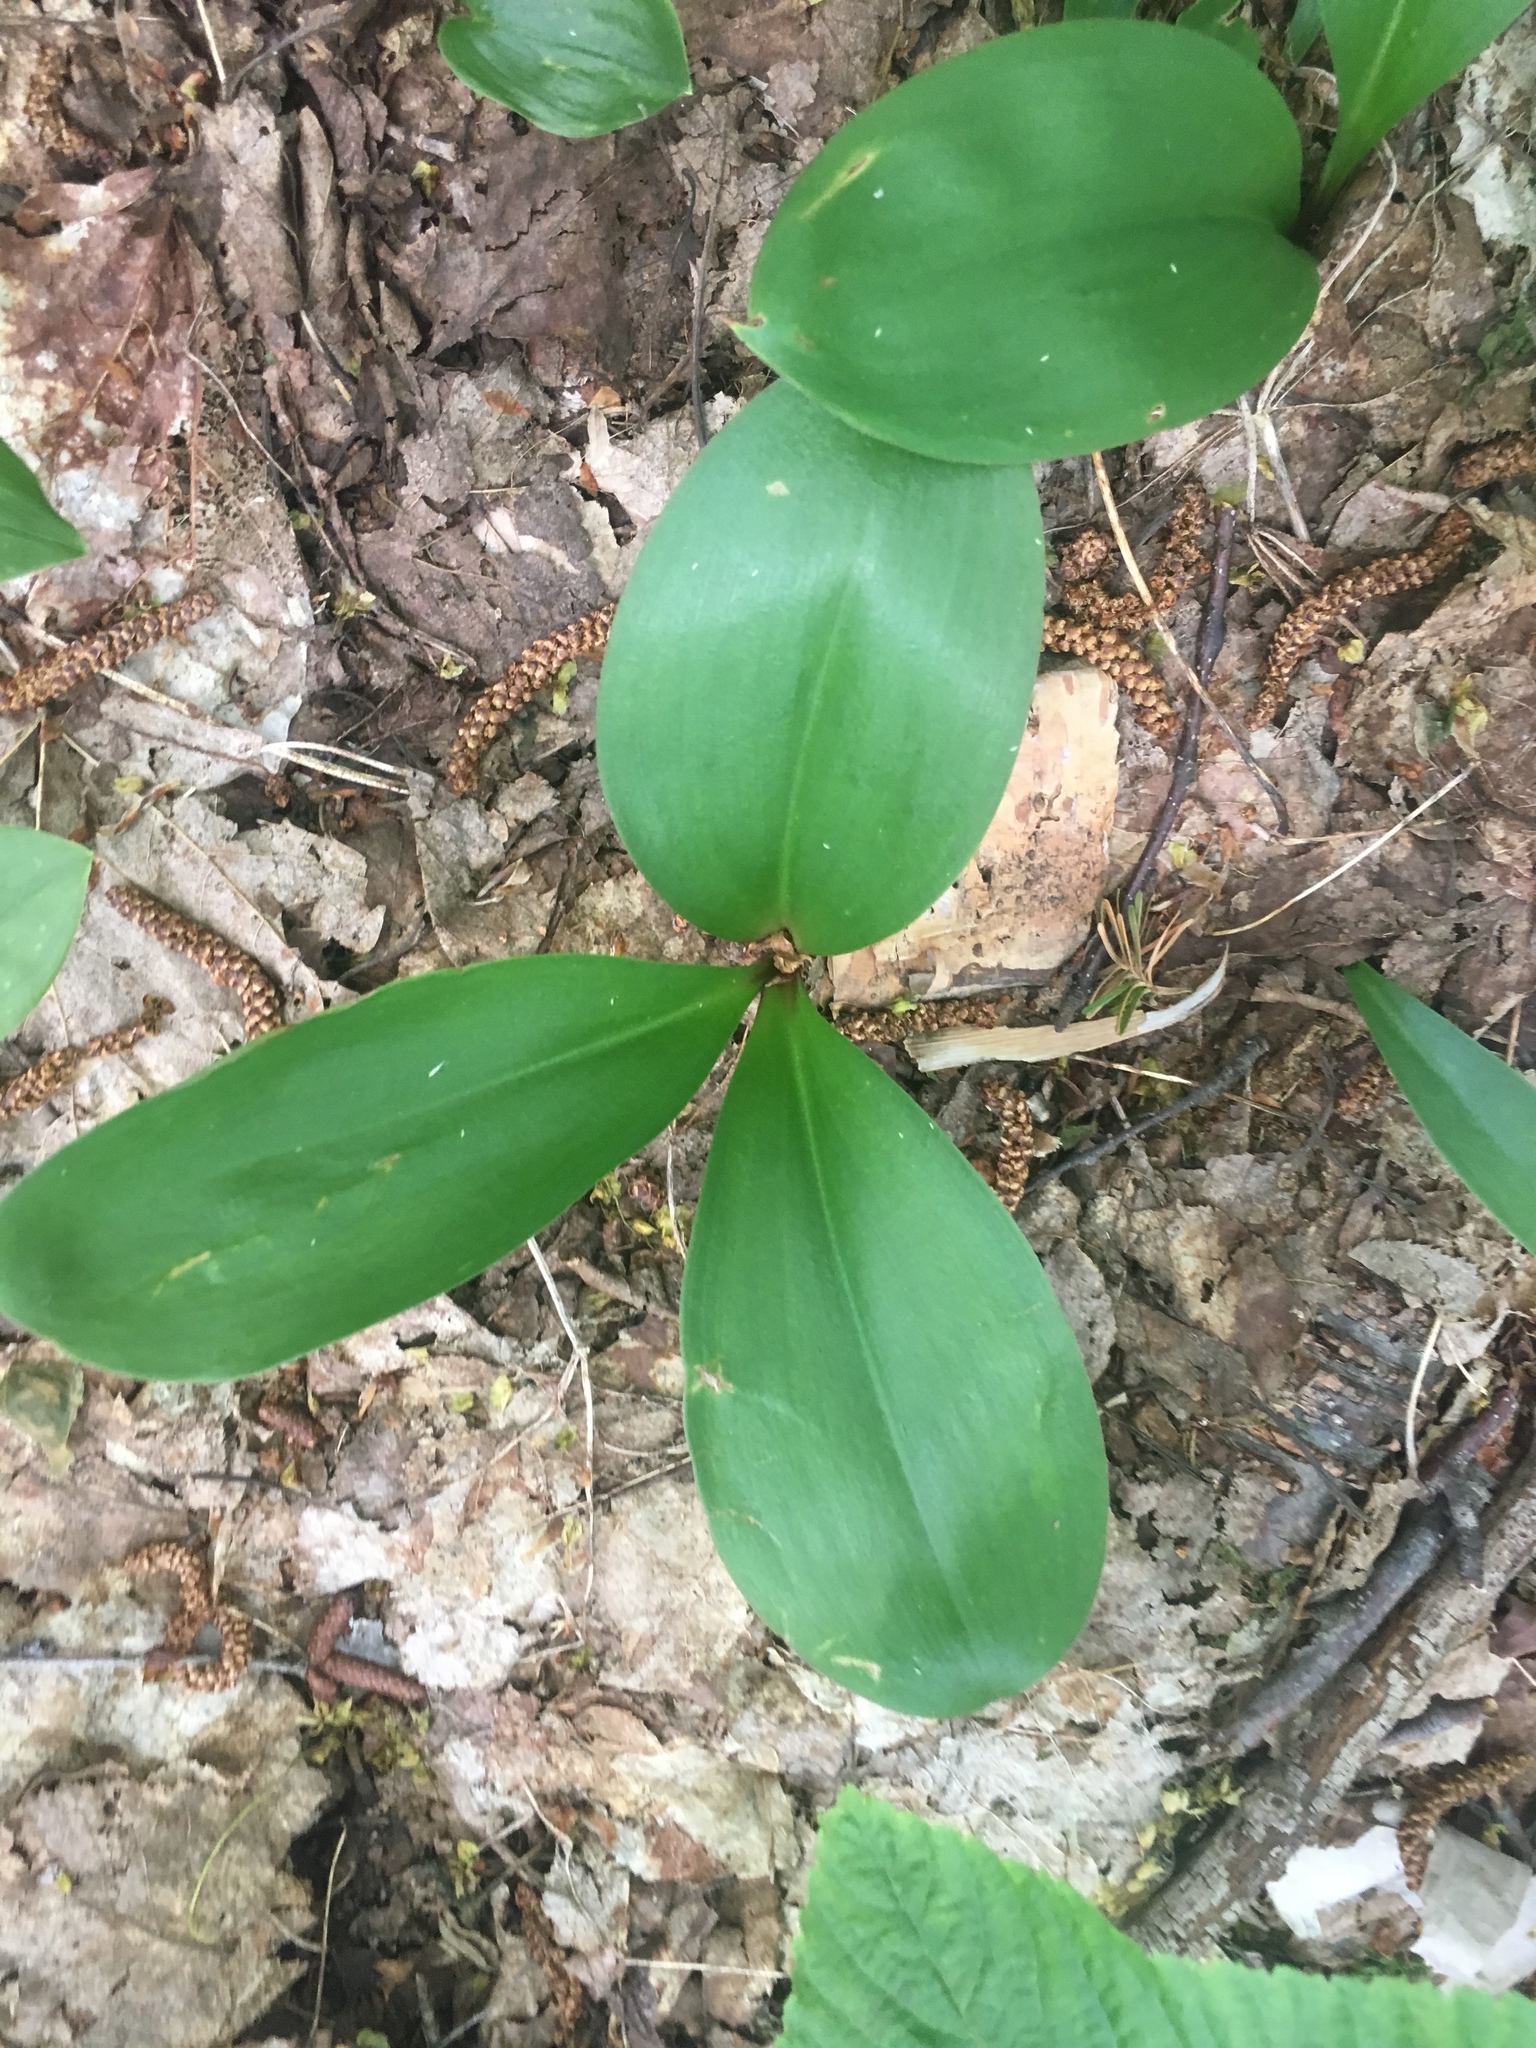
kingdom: Plantae
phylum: Tracheophyta
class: Liliopsida
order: Liliales
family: Liliaceae
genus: Clintonia
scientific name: Clintonia borealis
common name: Yellow clintonia
